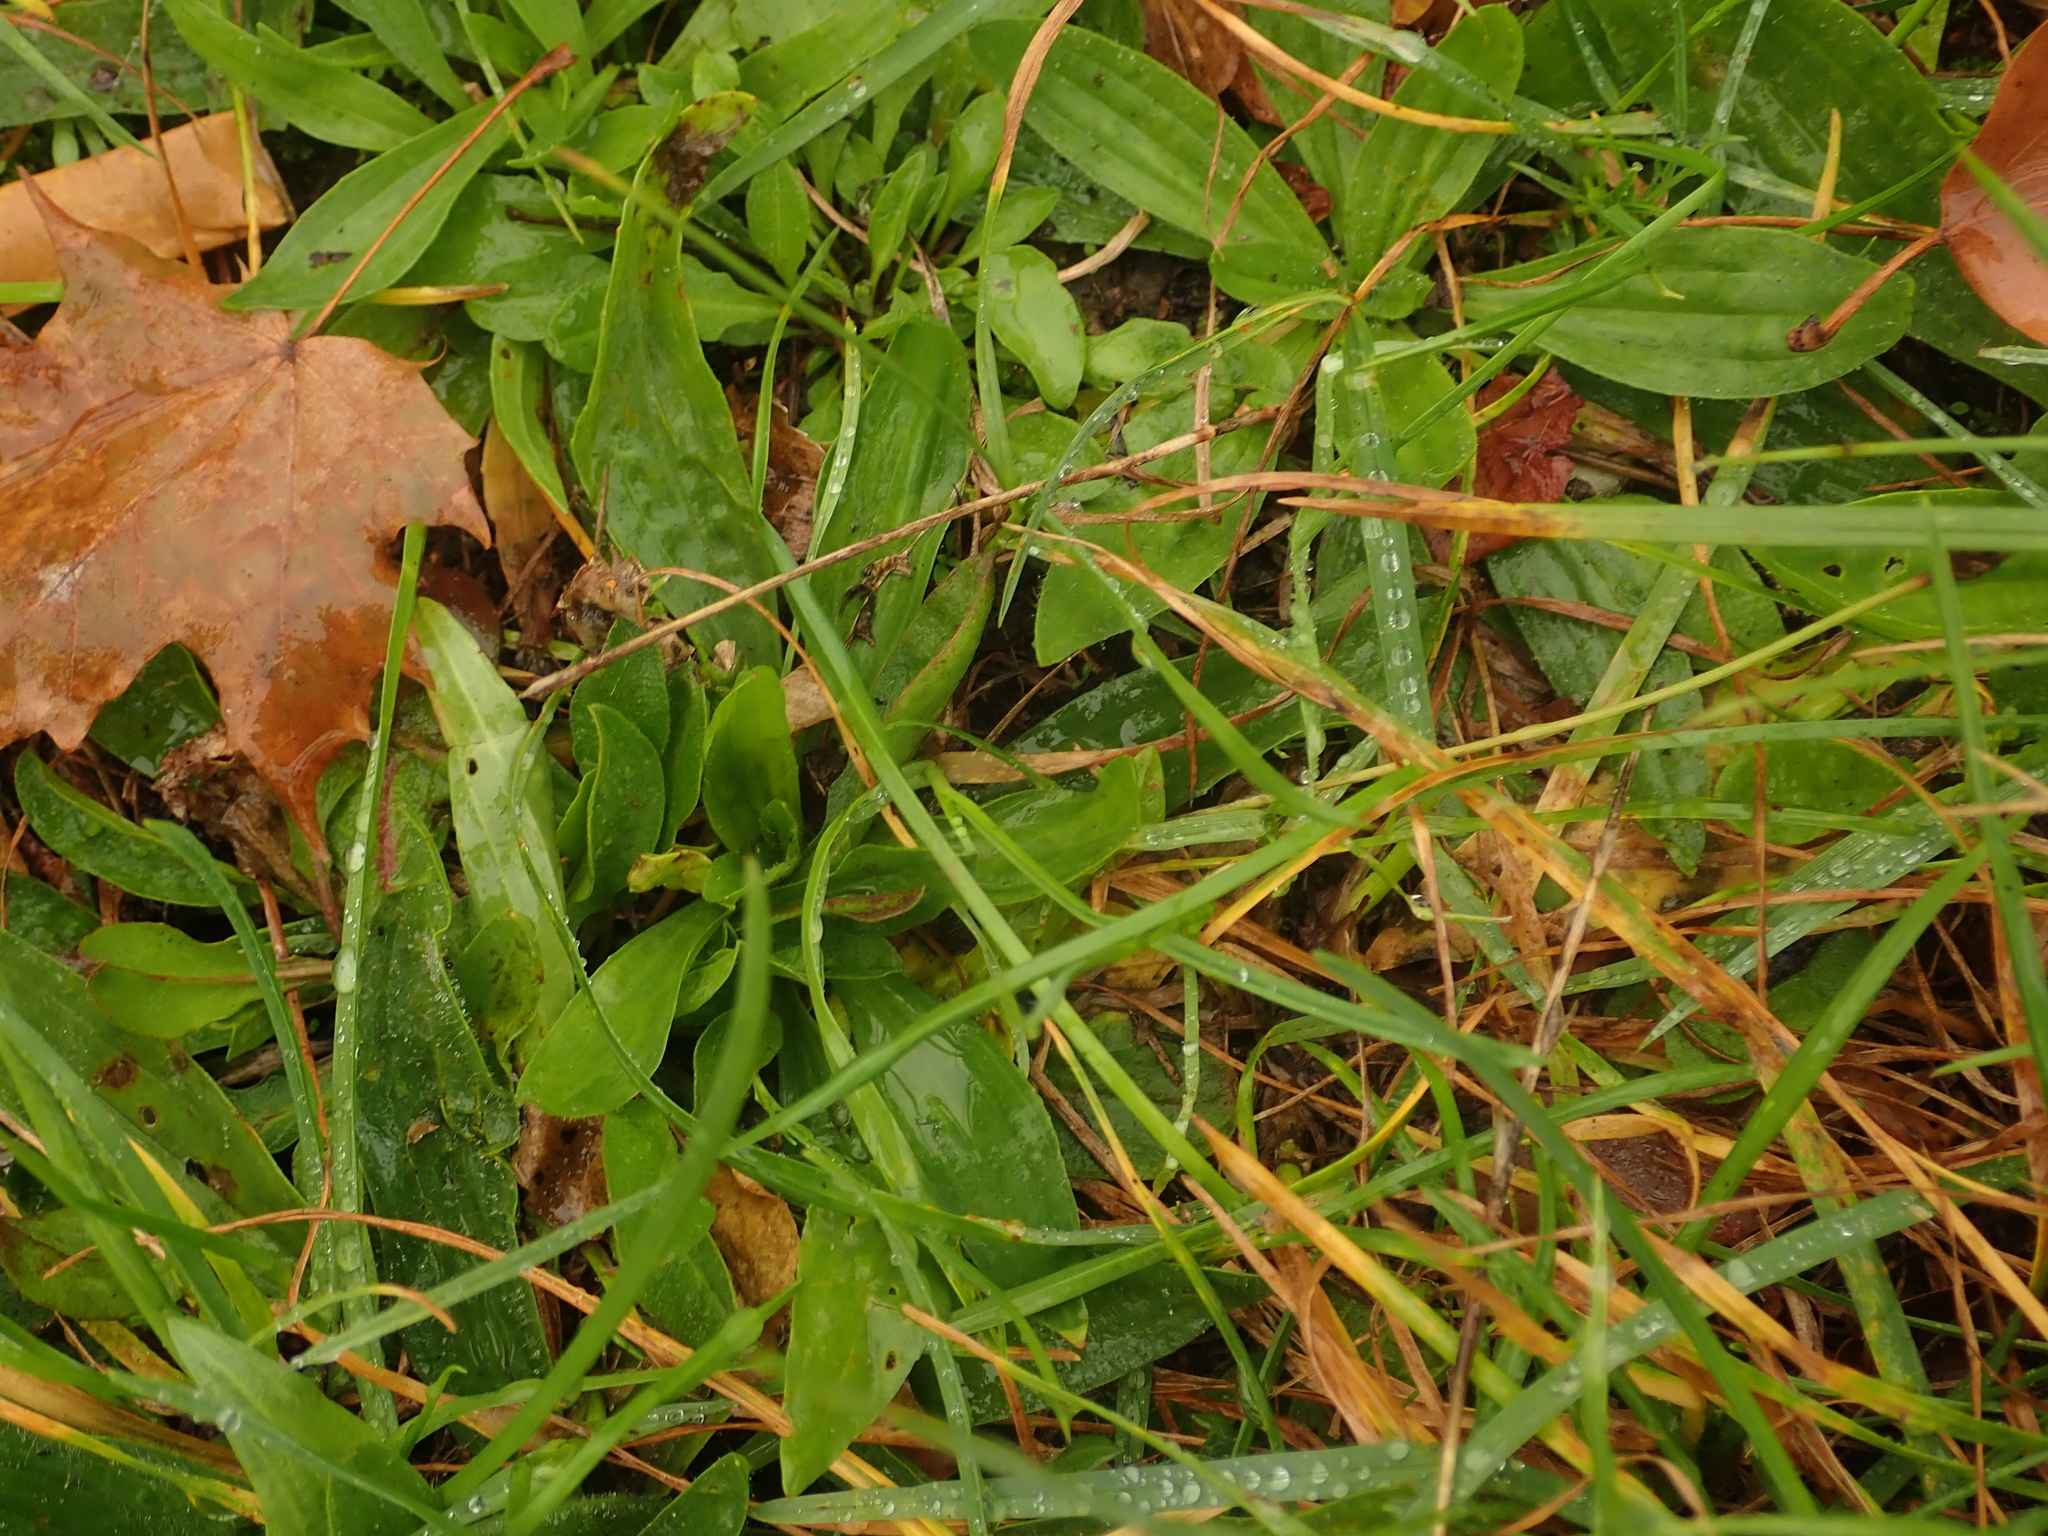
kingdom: Plantae
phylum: Tracheophyta
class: Magnoliopsida
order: Lamiales
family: Plantaginaceae
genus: Plantago
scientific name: Plantago lanceolata
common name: Ribwort plantain
